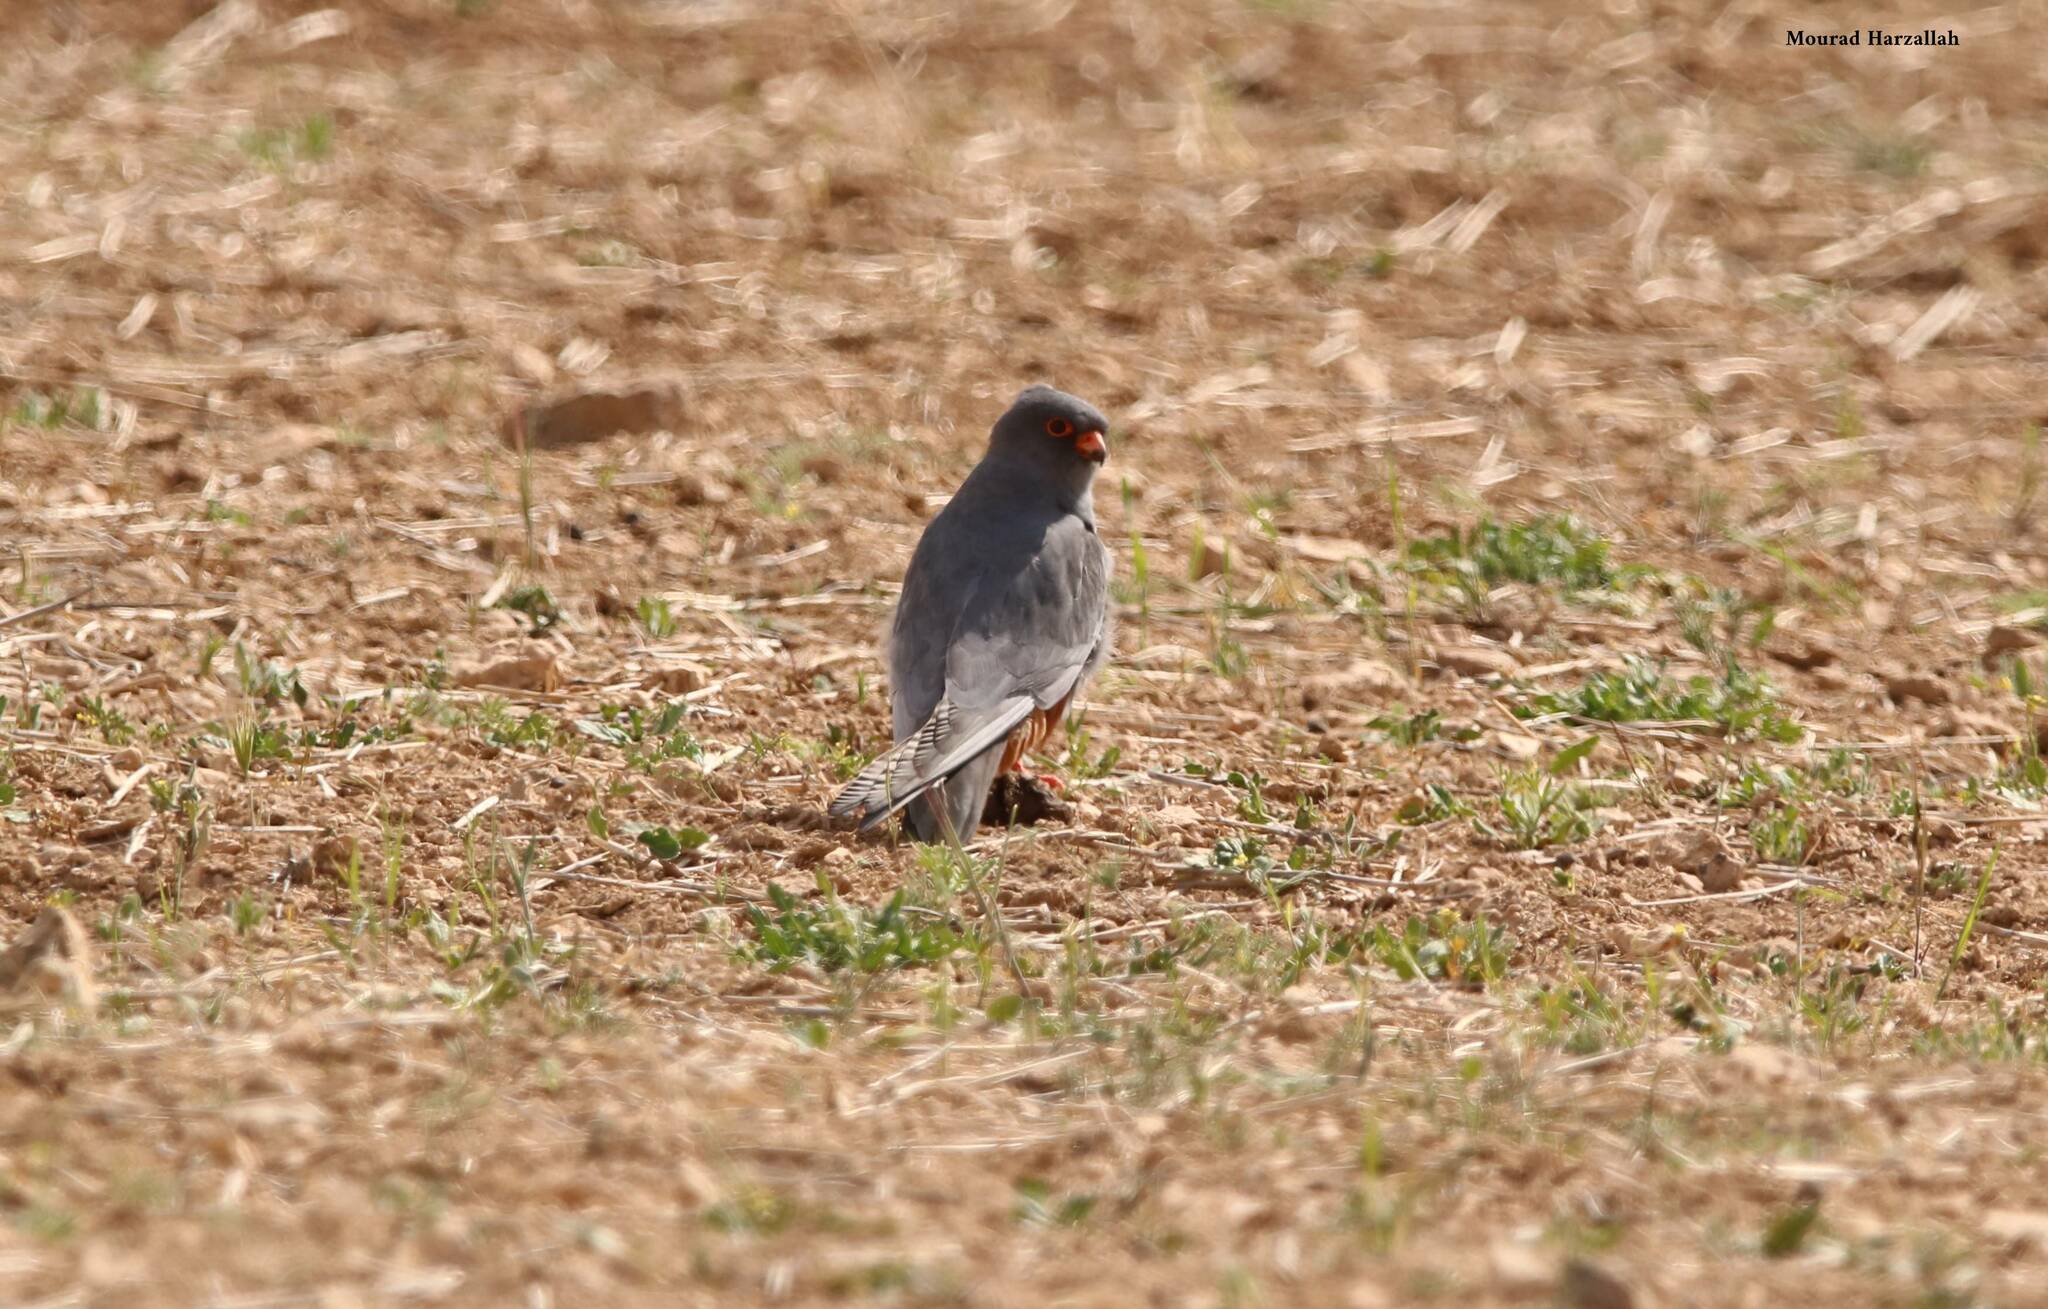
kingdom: Animalia
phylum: Chordata
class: Aves
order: Falconiformes
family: Falconidae
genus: Falco
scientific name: Falco vespertinus
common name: Red-footed falcon
